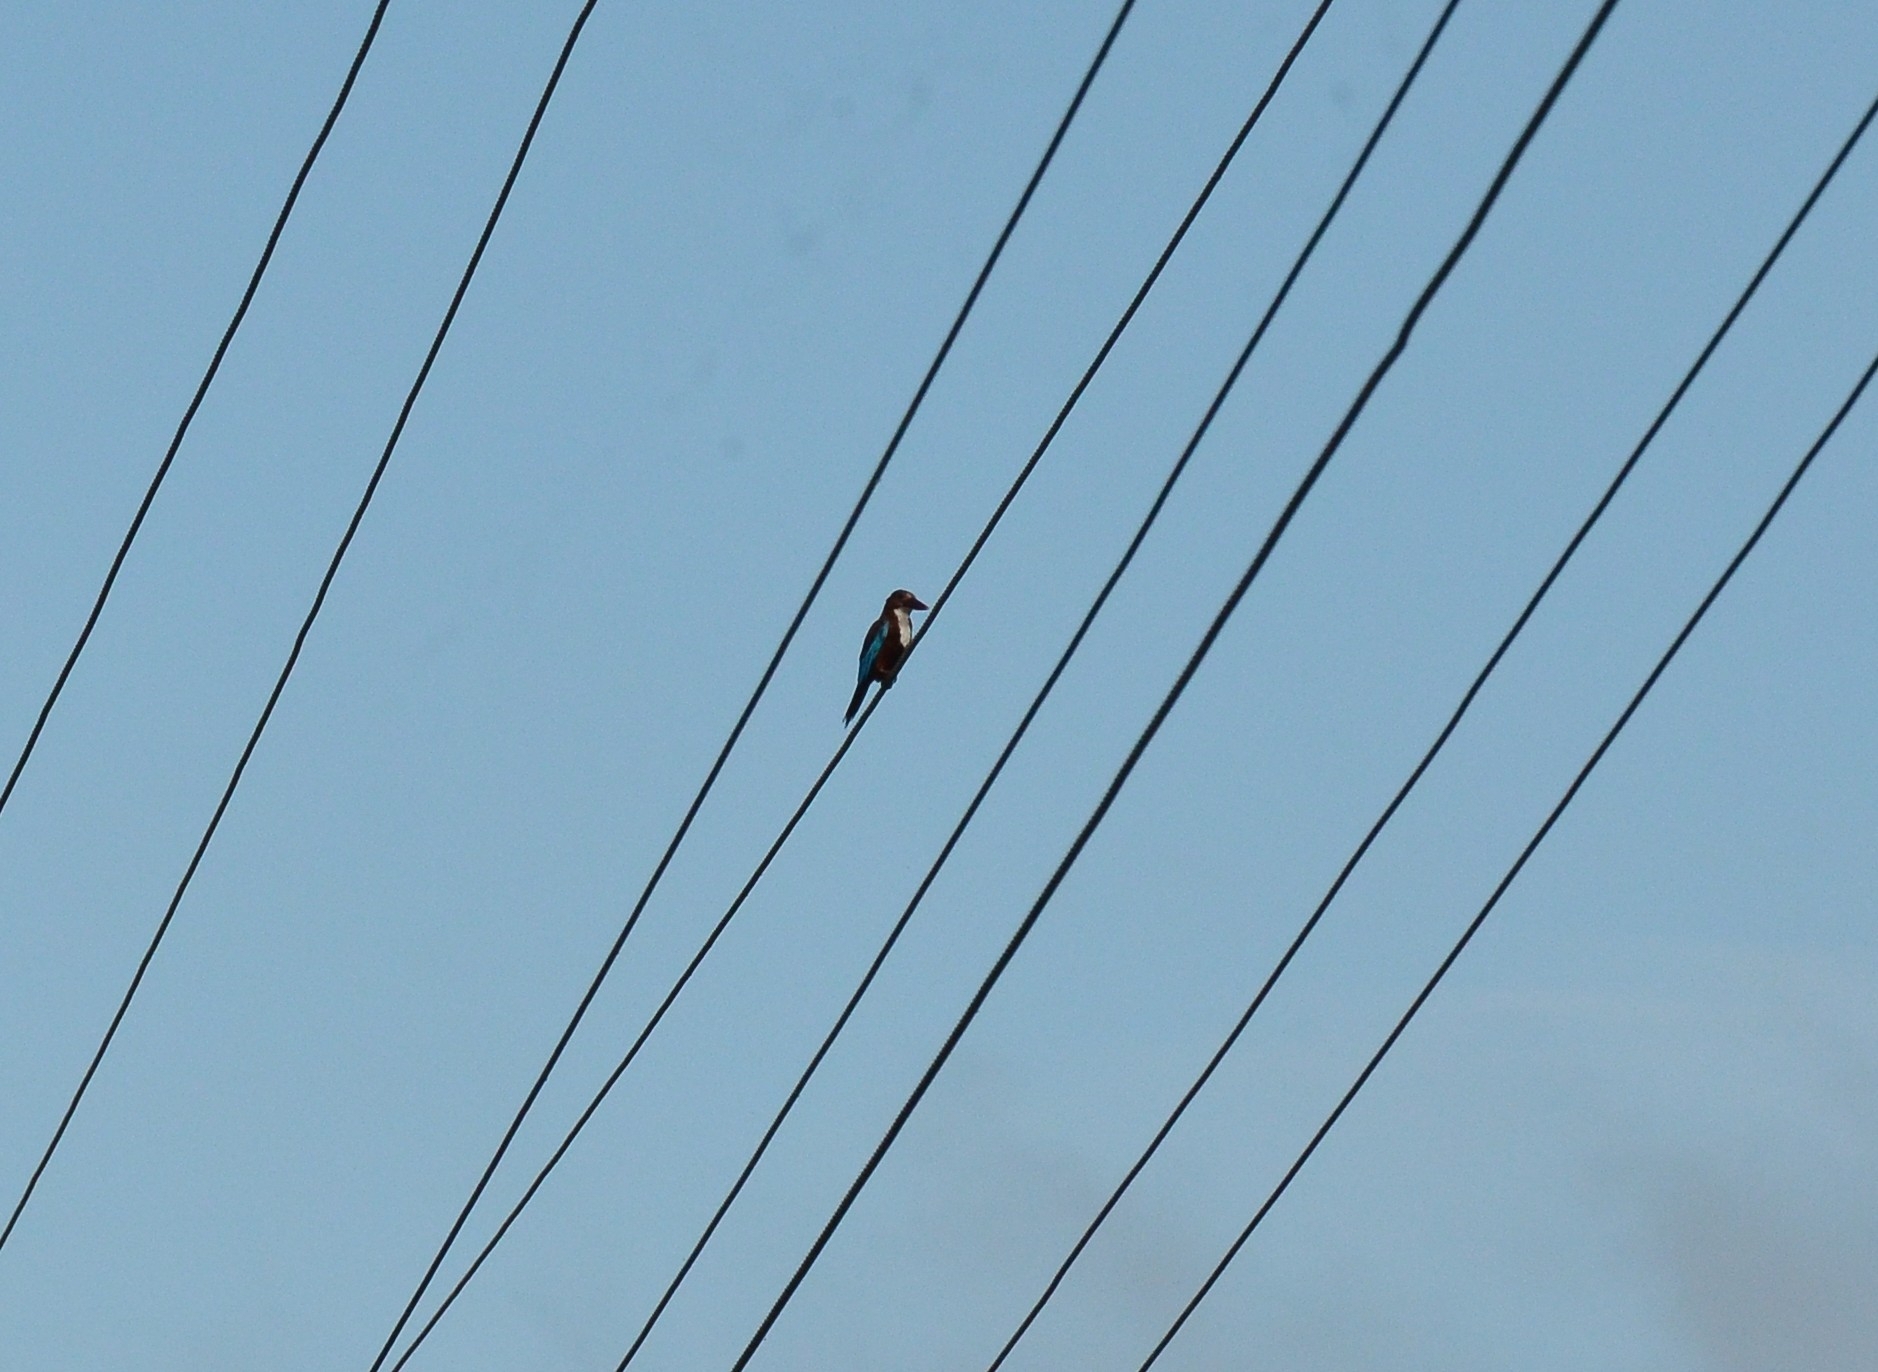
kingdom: Animalia
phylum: Chordata
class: Aves
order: Coraciiformes
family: Alcedinidae
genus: Halcyon
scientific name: Halcyon smyrnensis
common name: White-throated kingfisher
